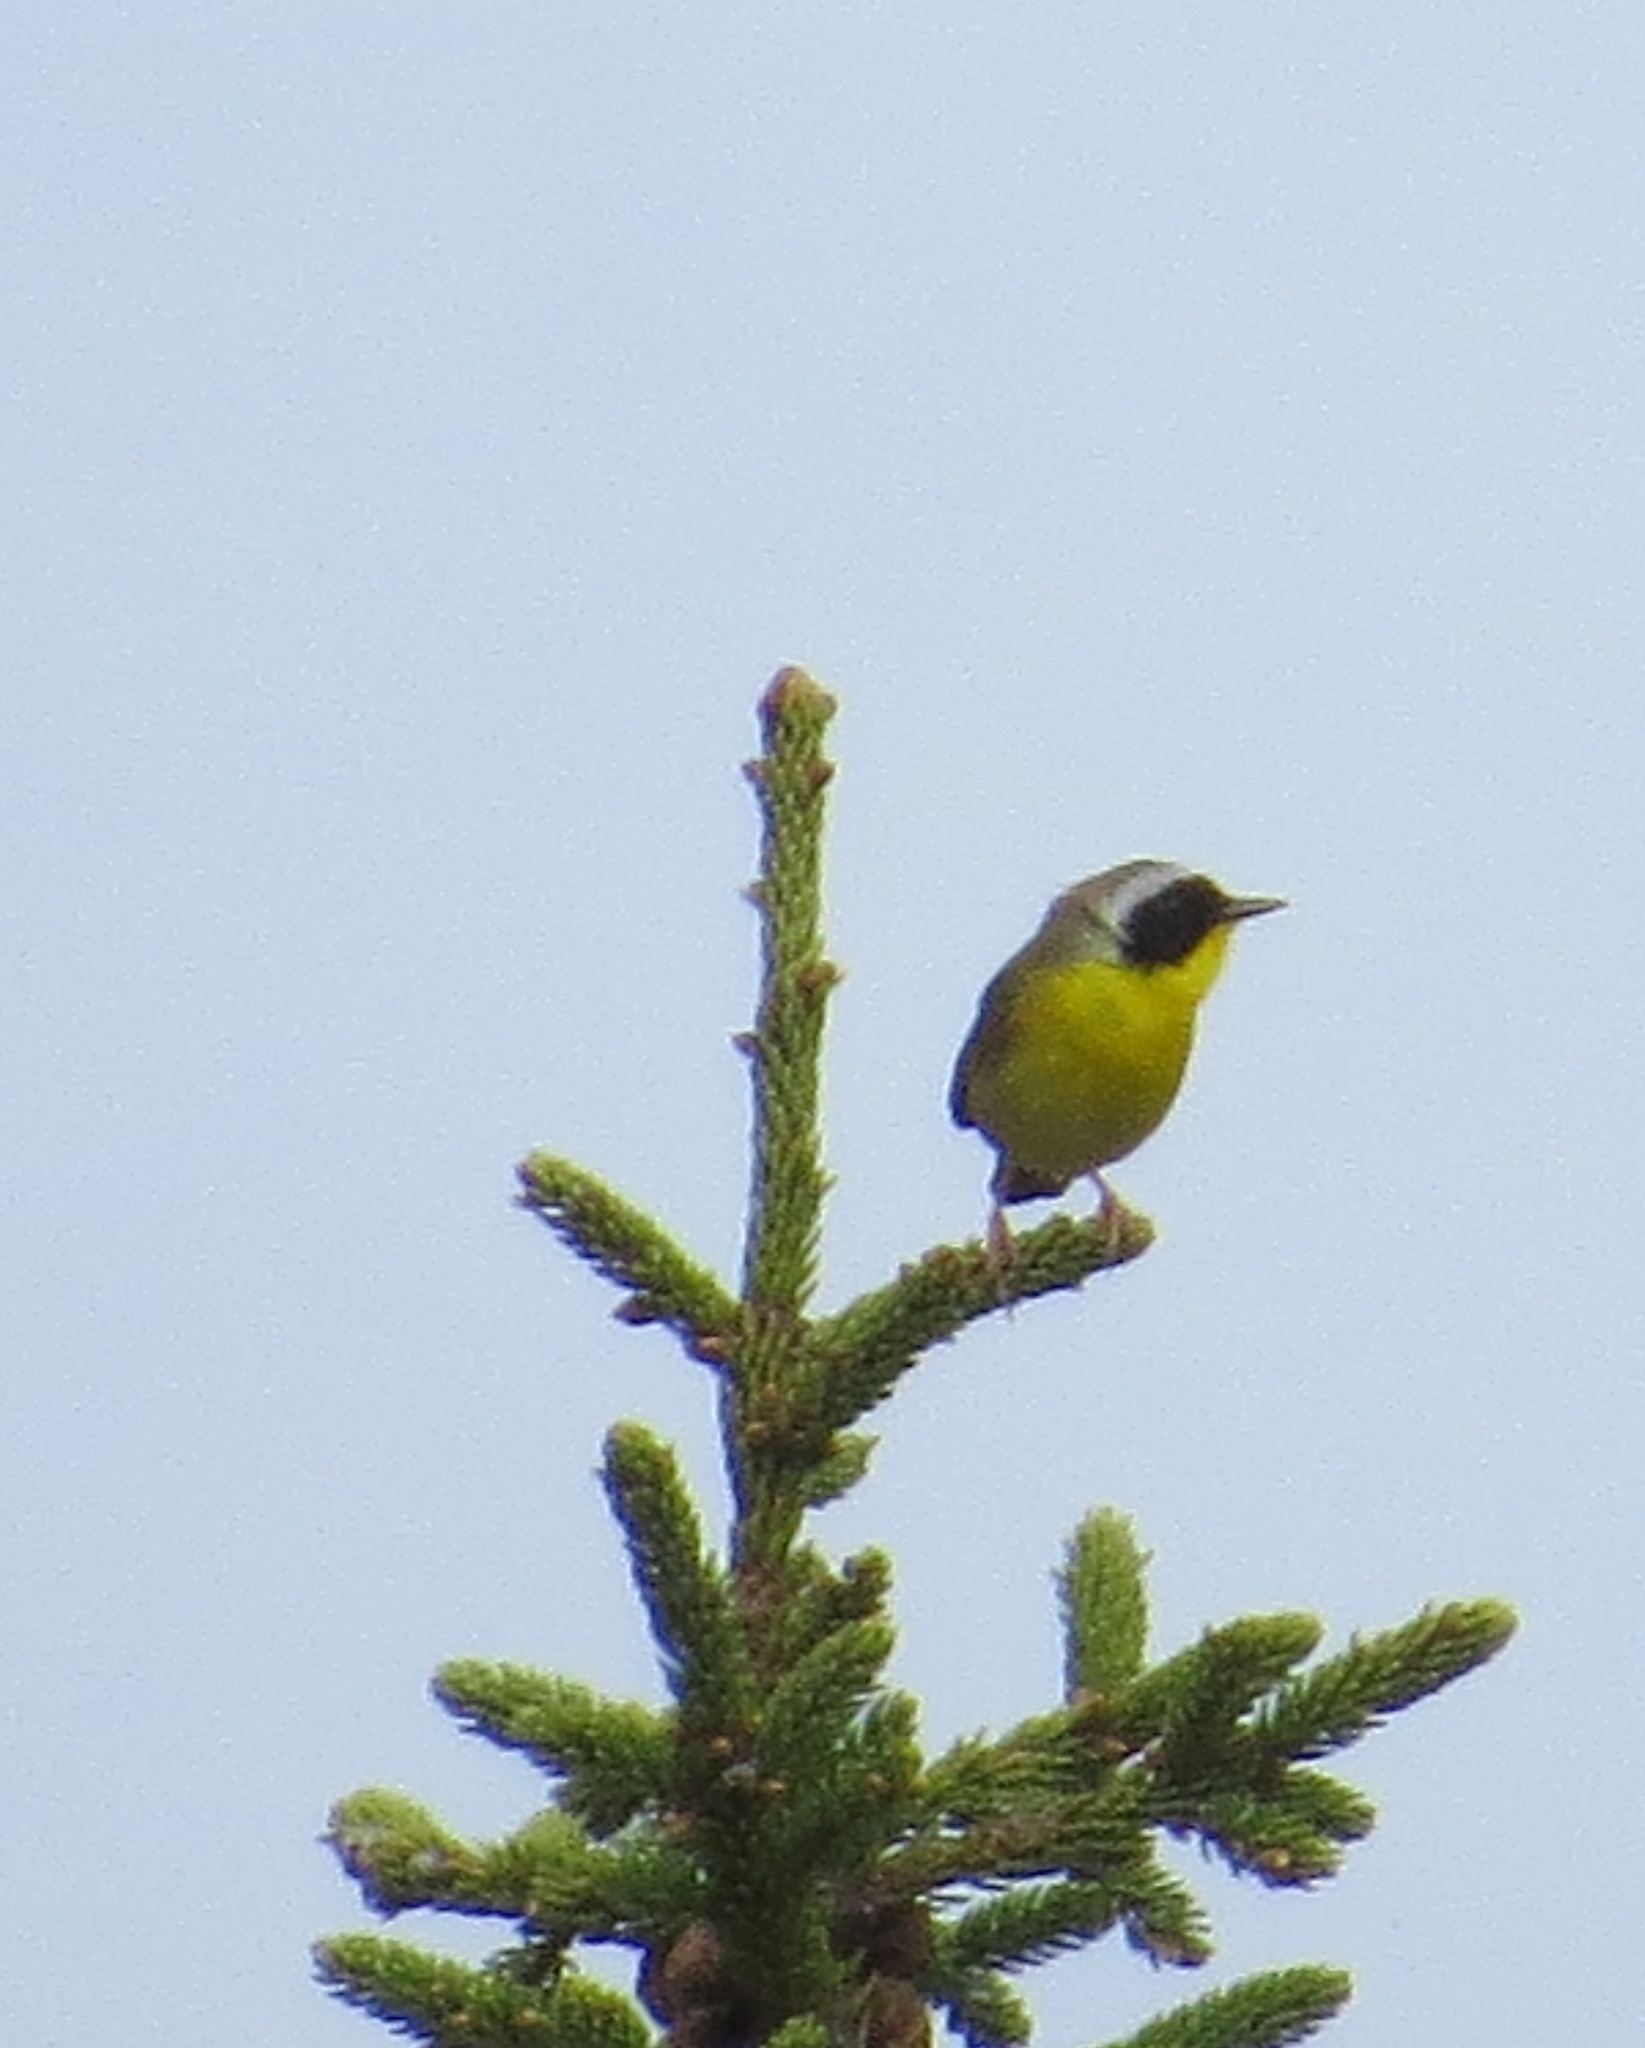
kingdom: Animalia
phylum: Chordata
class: Aves
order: Passeriformes
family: Parulidae
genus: Geothlypis
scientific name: Geothlypis trichas
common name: Common yellowthroat
